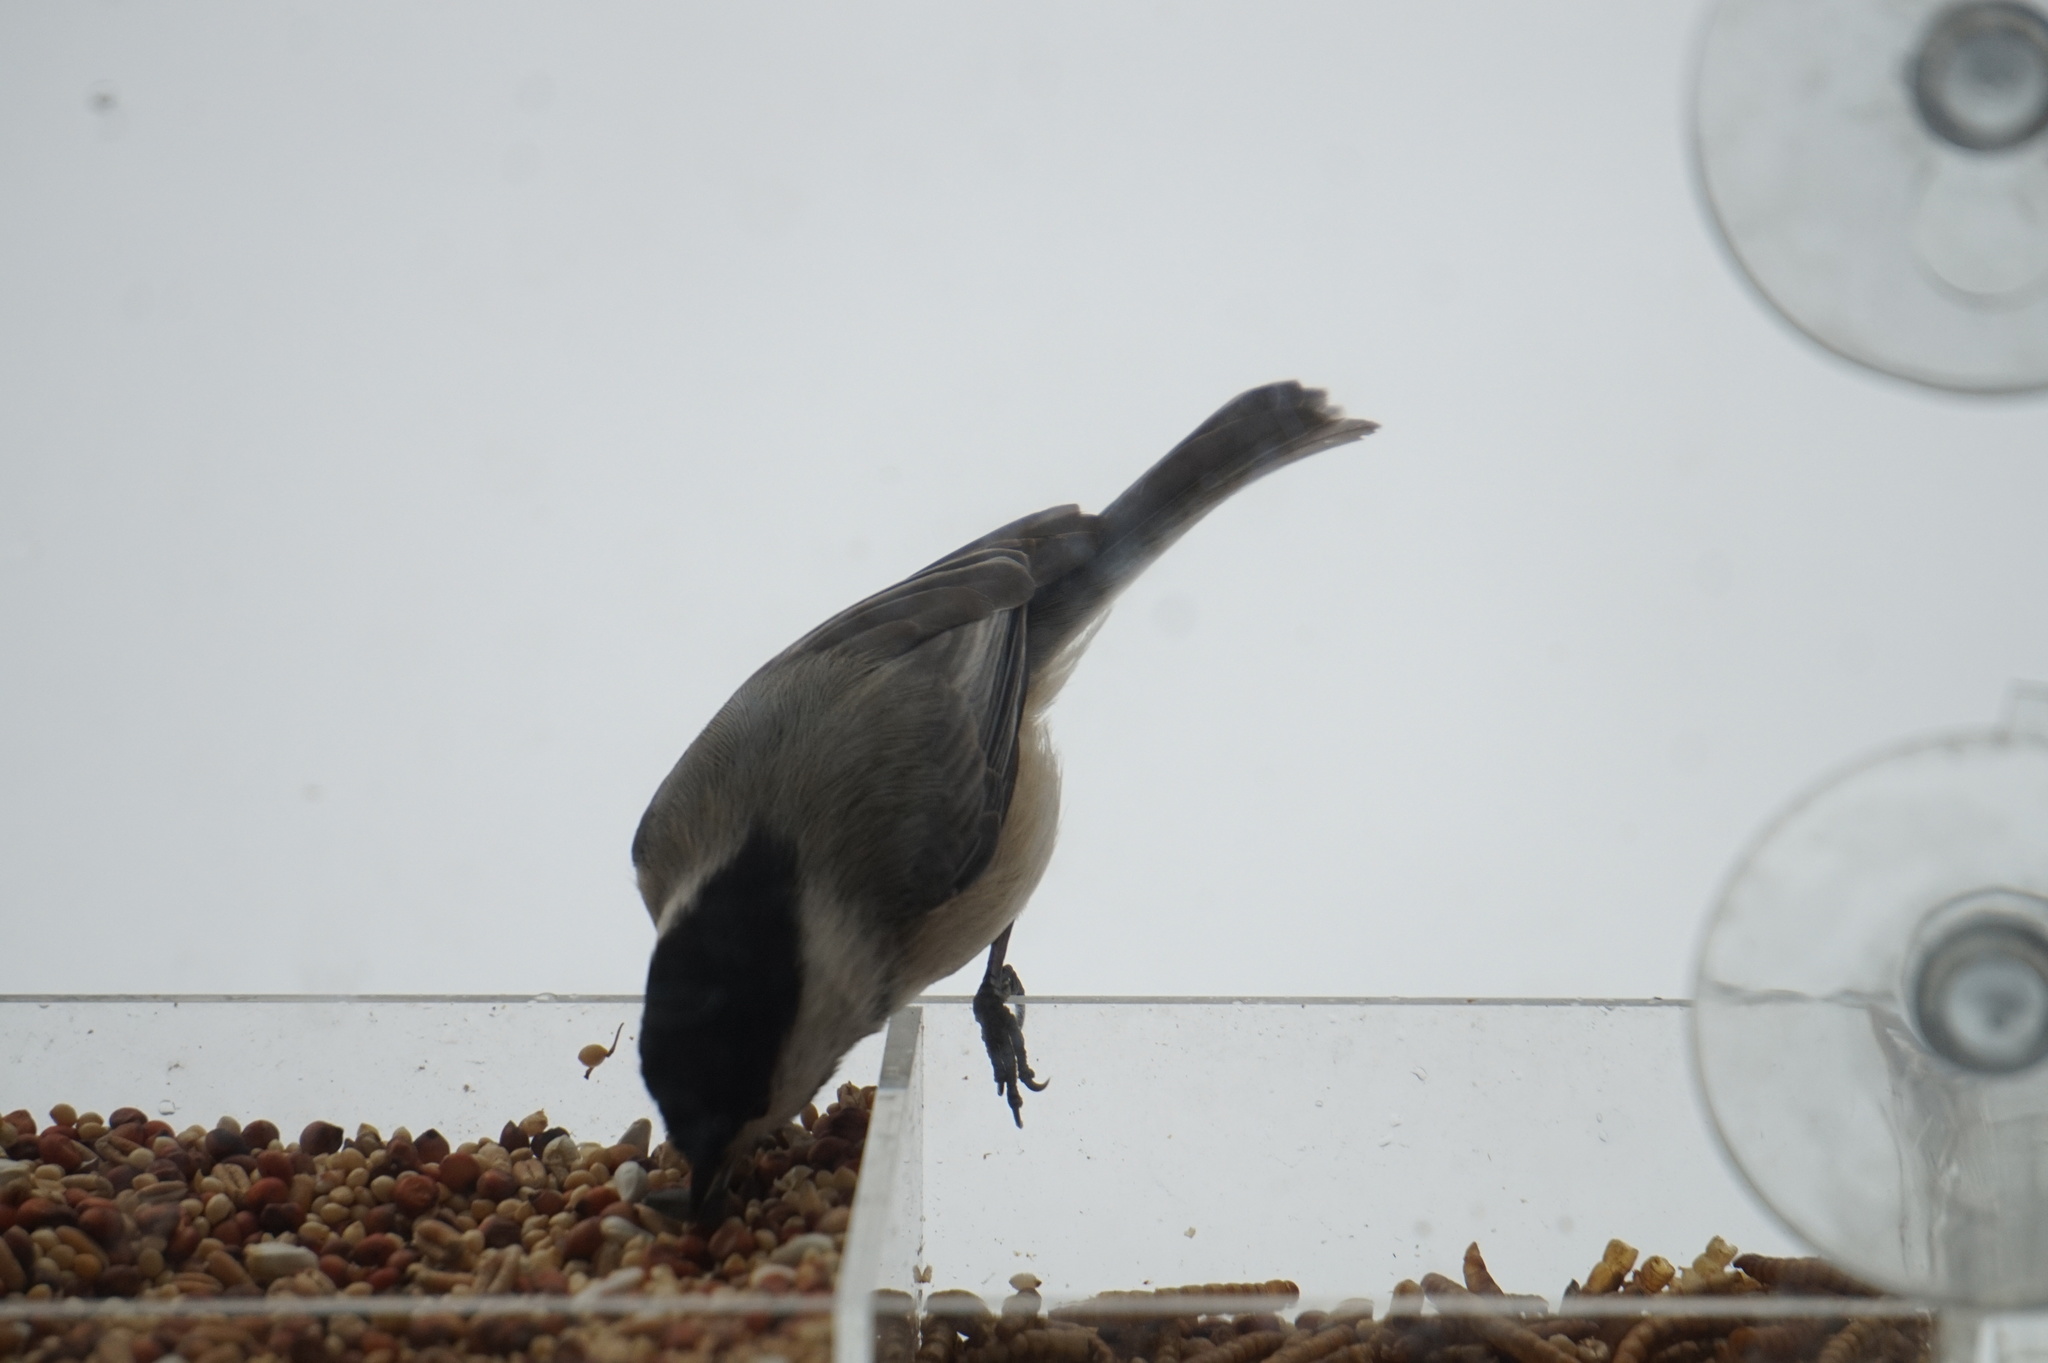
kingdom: Animalia
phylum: Chordata
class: Aves
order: Passeriformes
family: Sittidae
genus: Sitta
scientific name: Sitta carolinensis
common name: White-breasted nuthatch
